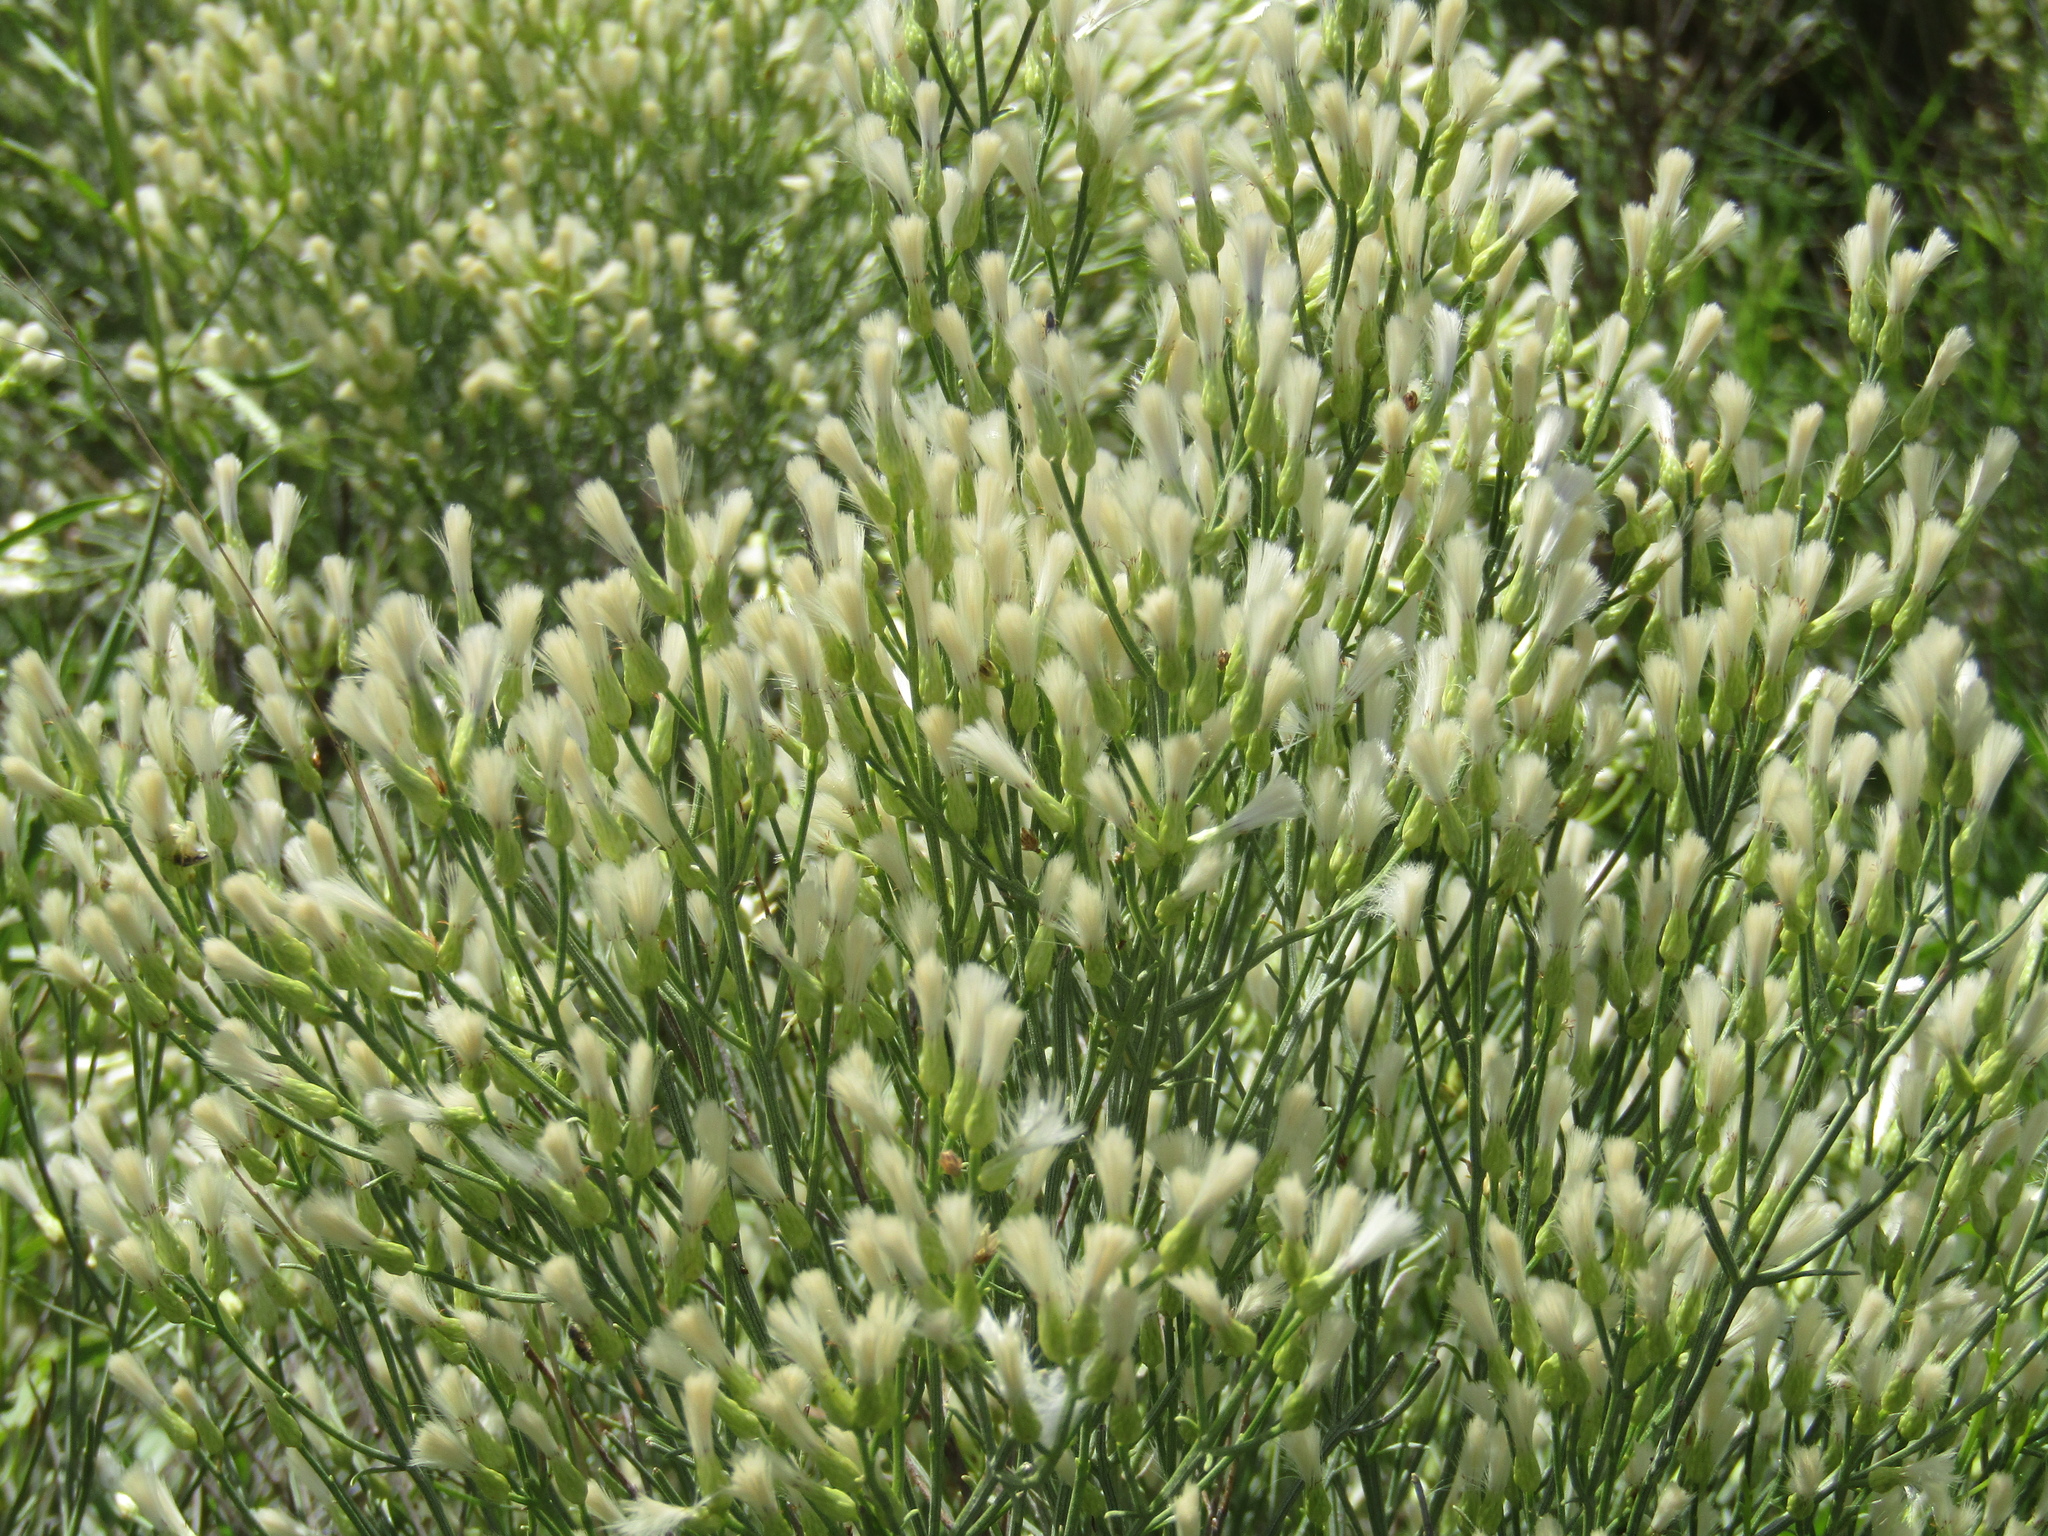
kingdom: Plantae
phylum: Tracheophyta
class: Magnoliopsida
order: Asterales
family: Asteraceae
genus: Baccharis
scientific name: Baccharis notosergila
